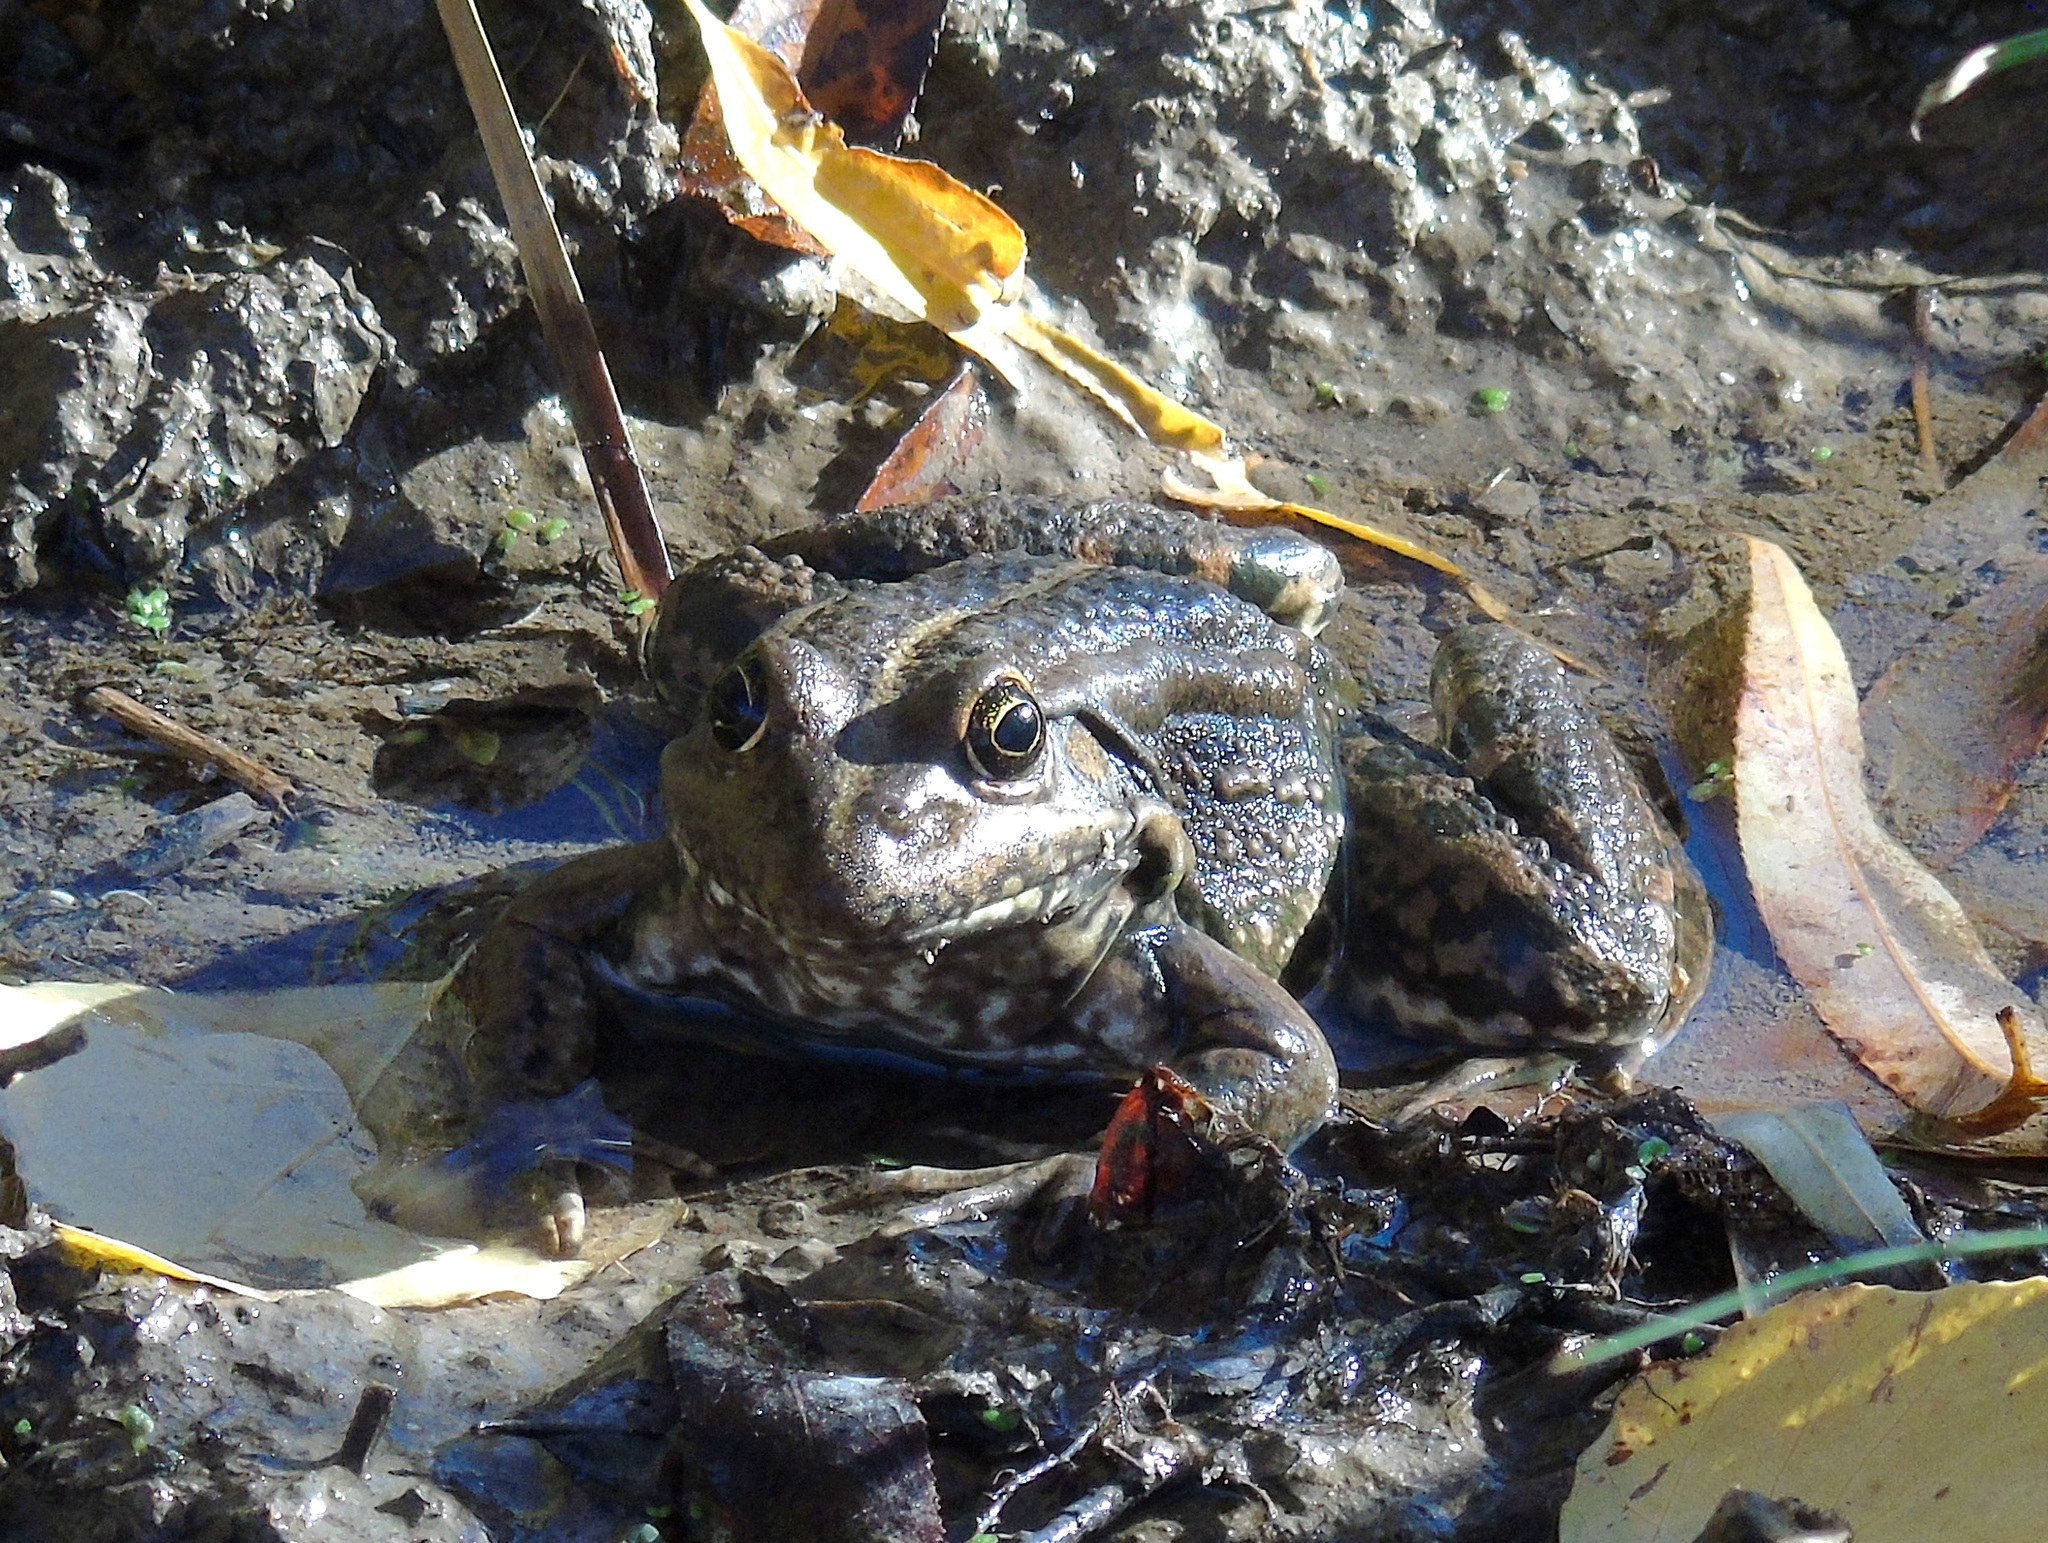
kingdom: Animalia
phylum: Chordata
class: Amphibia
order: Anura
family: Ranidae
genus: Pelophylax
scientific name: Pelophylax ridibundus
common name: Marsh frog
